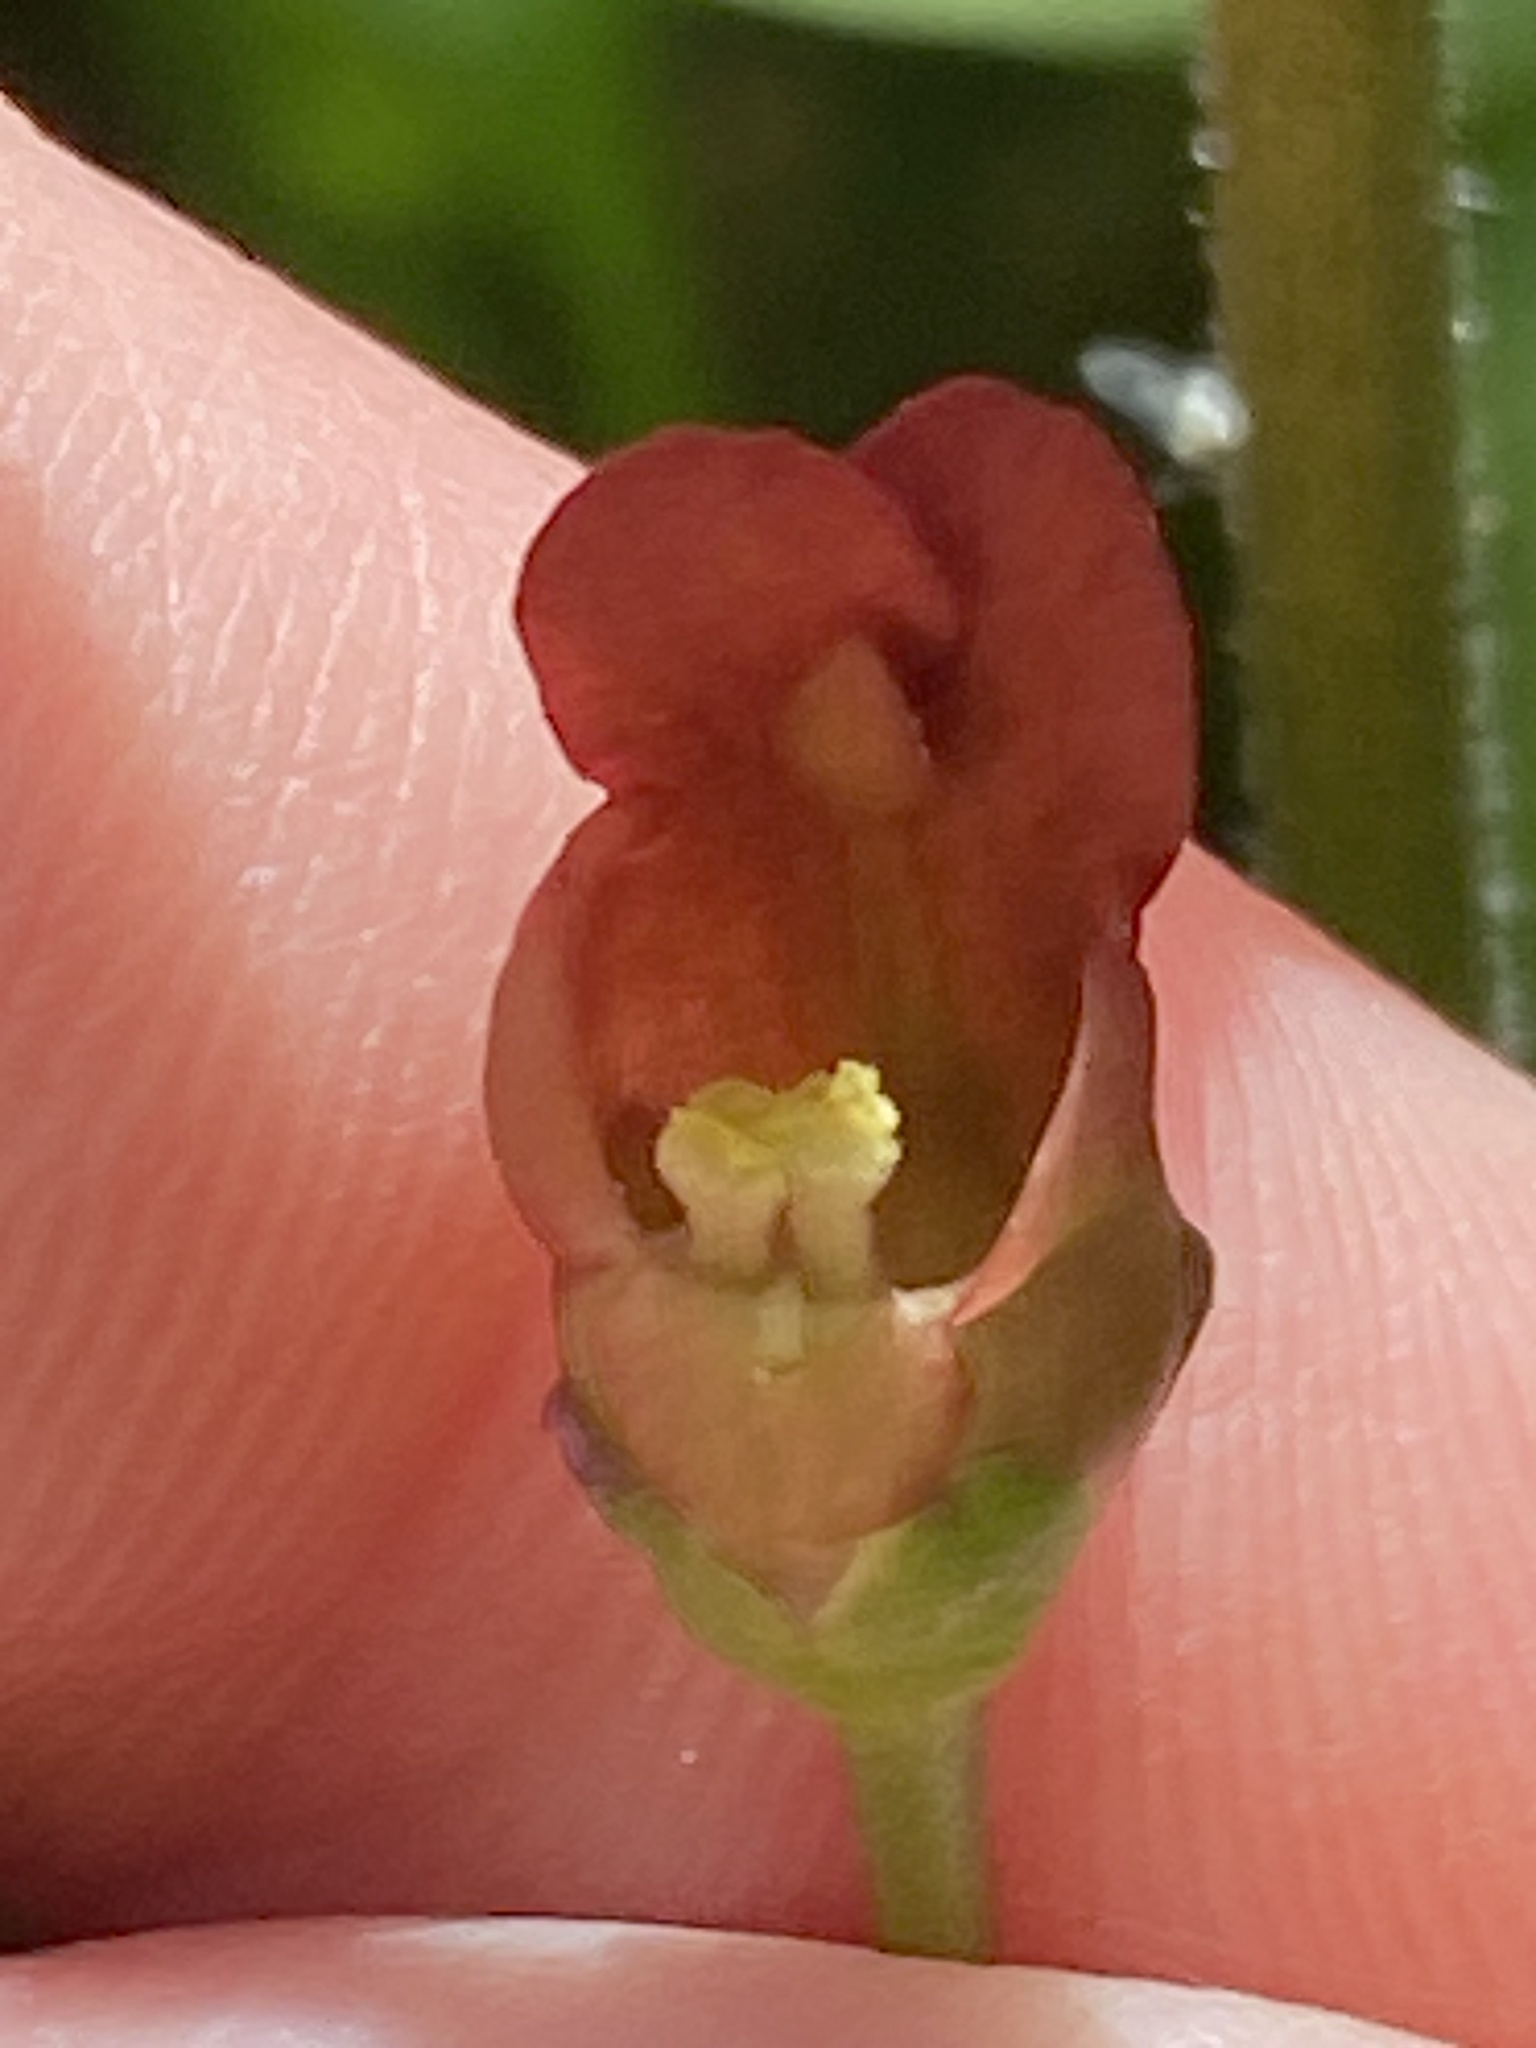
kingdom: Plantae
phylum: Tracheophyta
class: Magnoliopsida
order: Lamiales
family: Scrophulariaceae
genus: Scrophularia
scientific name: Scrophularia californica
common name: California figwort
